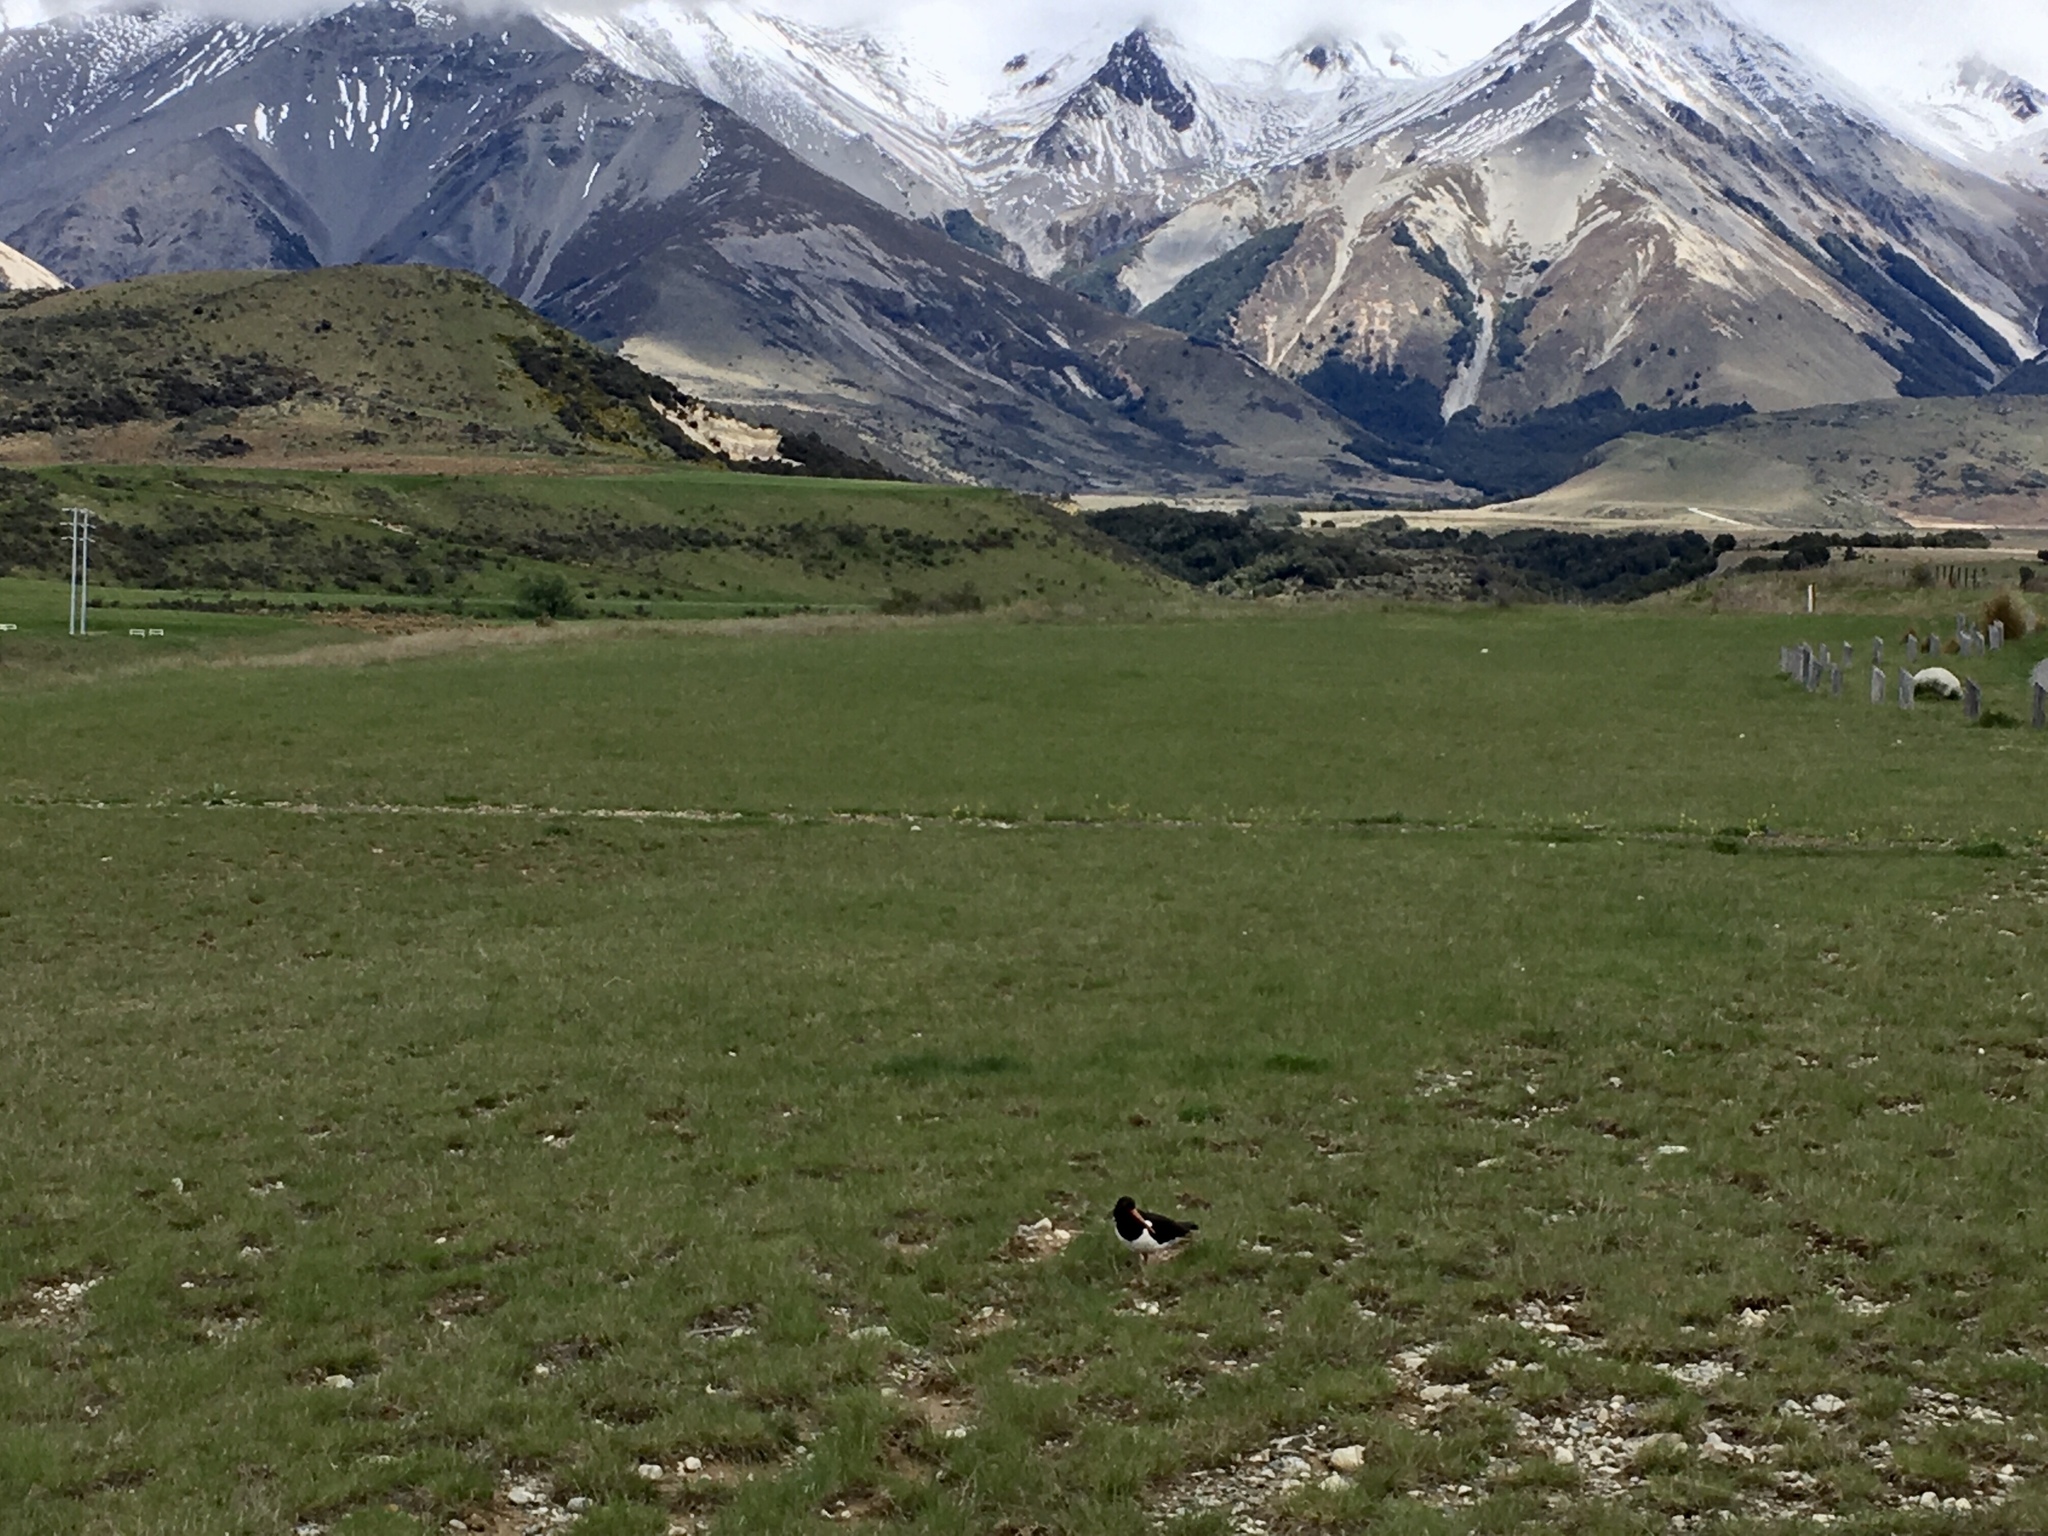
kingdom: Animalia
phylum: Chordata
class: Aves
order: Charadriiformes
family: Haematopodidae
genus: Haematopus
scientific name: Haematopus finschi
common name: South island oystercatcher
